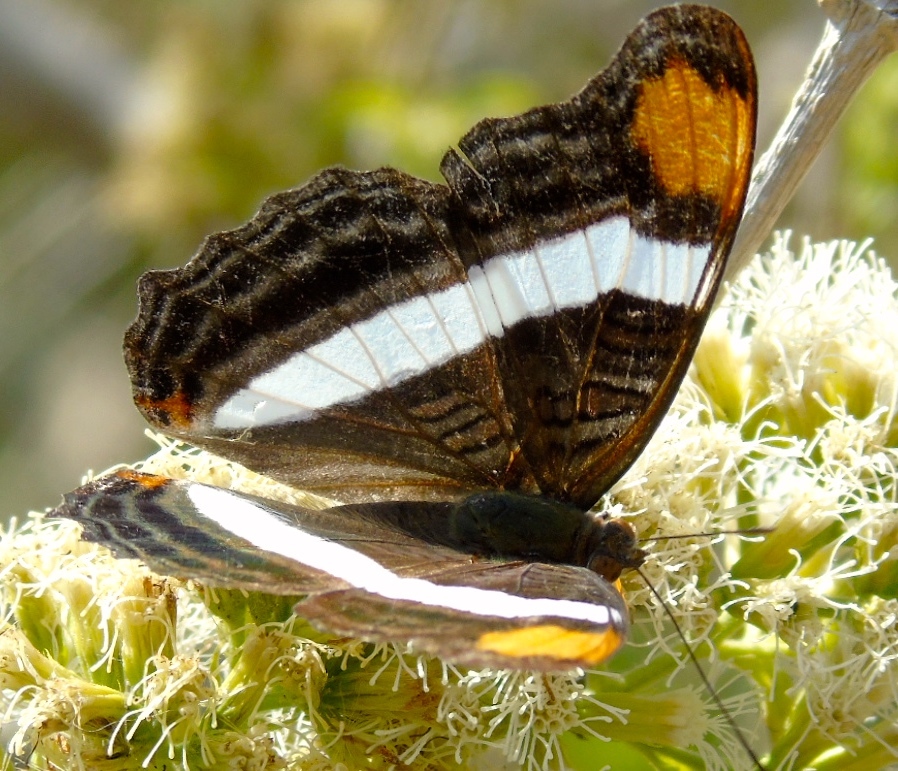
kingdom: Animalia
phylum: Arthropoda
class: Insecta
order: Lepidoptera
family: Nymphalidae
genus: Limenitis
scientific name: Limenitis fessonia
